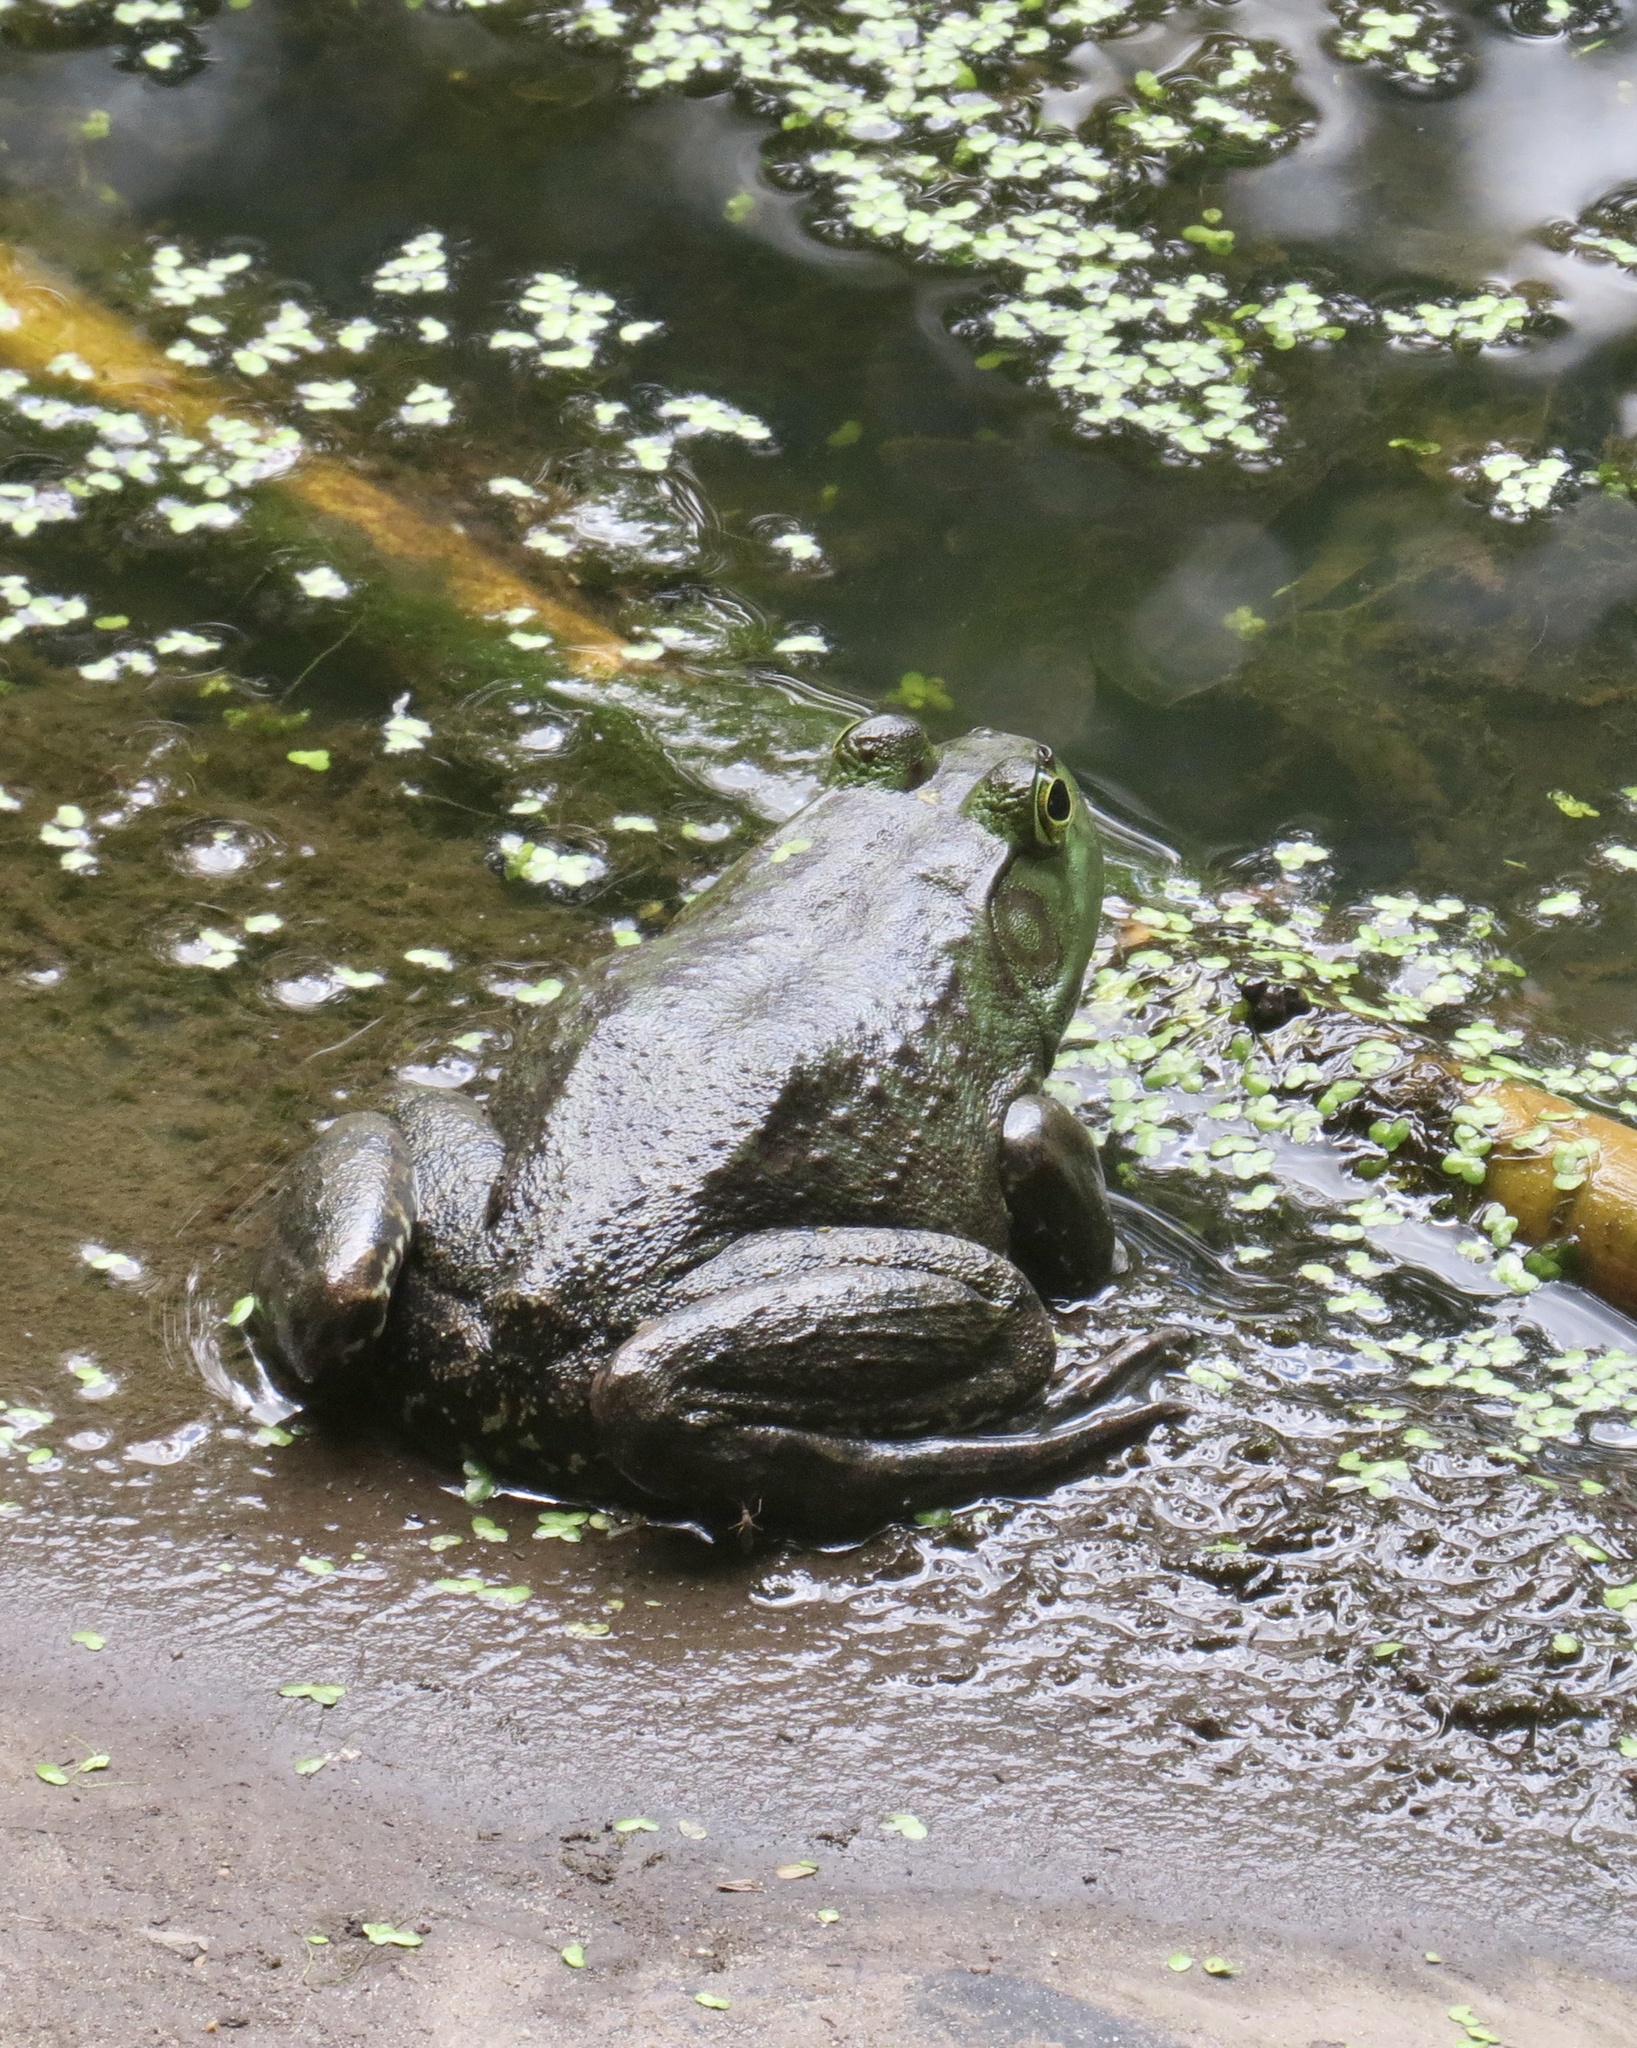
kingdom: Animalia
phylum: Chordata
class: Amphibia
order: Anura
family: Ranidae
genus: Lithobates
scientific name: Lithobates catesbeianus
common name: American bullfrog
